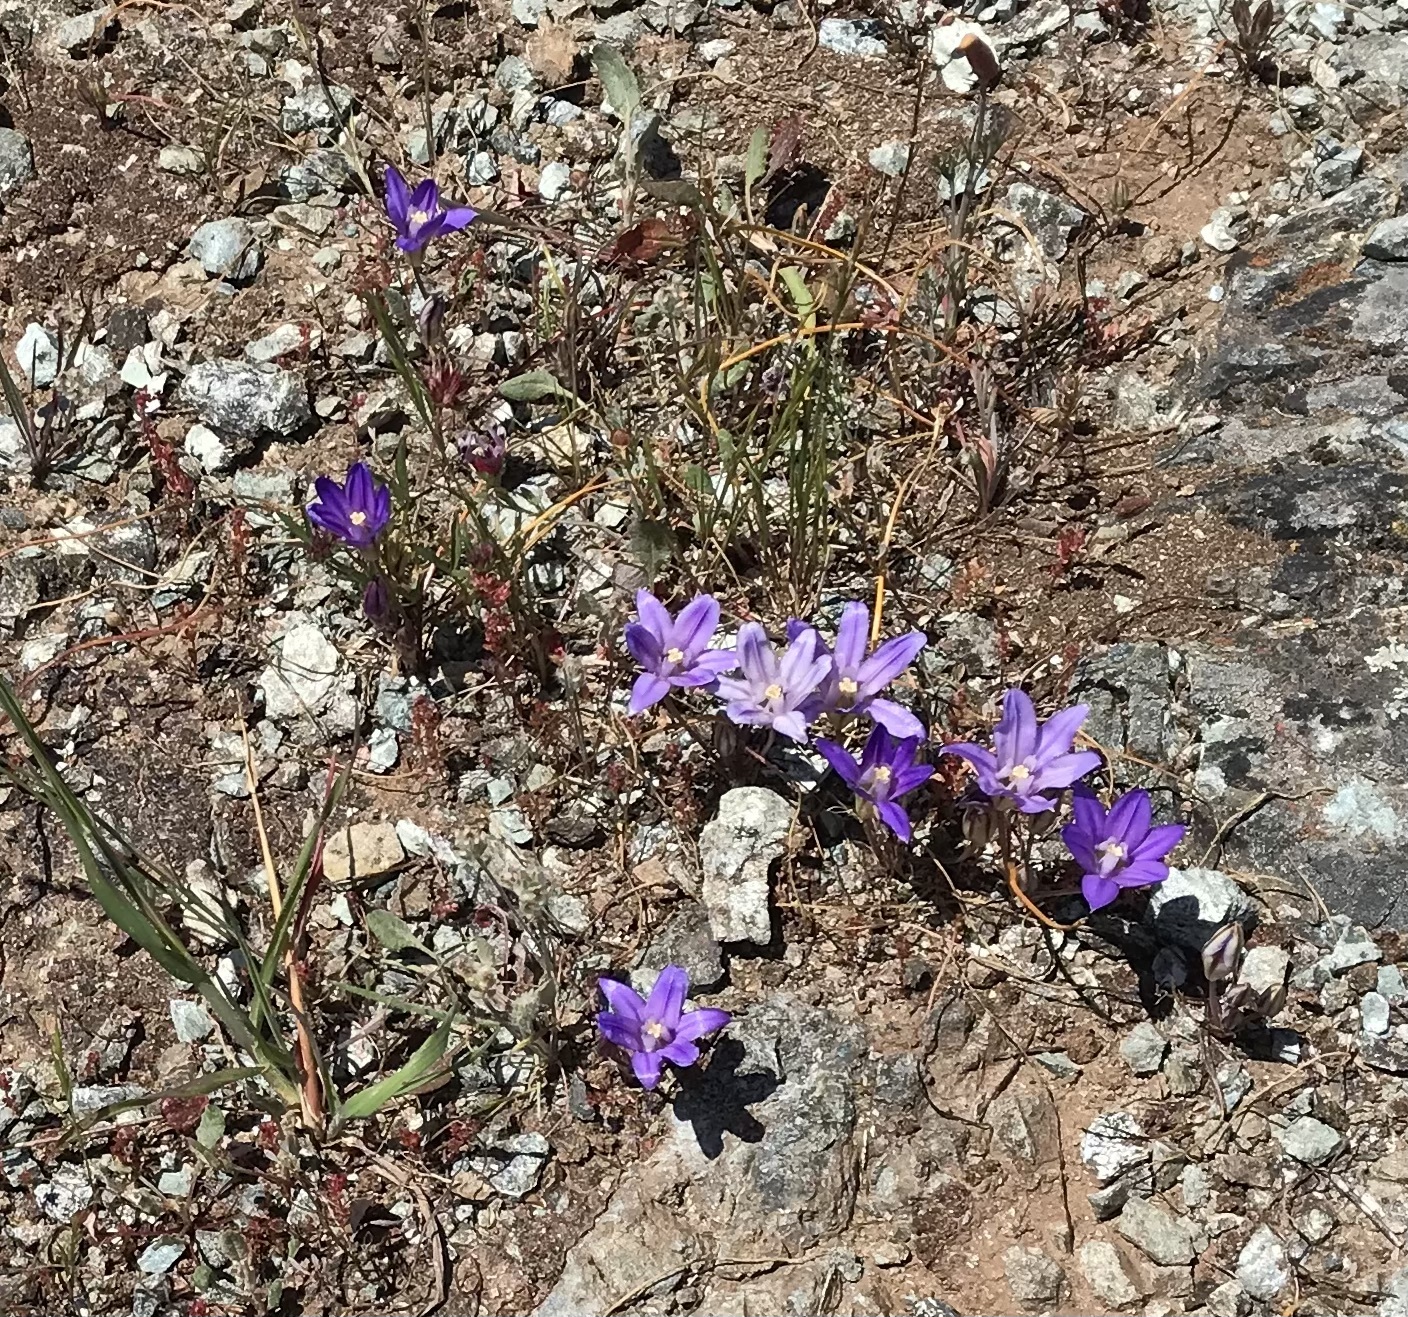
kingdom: Plantae
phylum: Tracheophyta
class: Liliopsida
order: Asparagales
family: Asparagaceae
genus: Brodiaea
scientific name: Brodiaea terrestris
